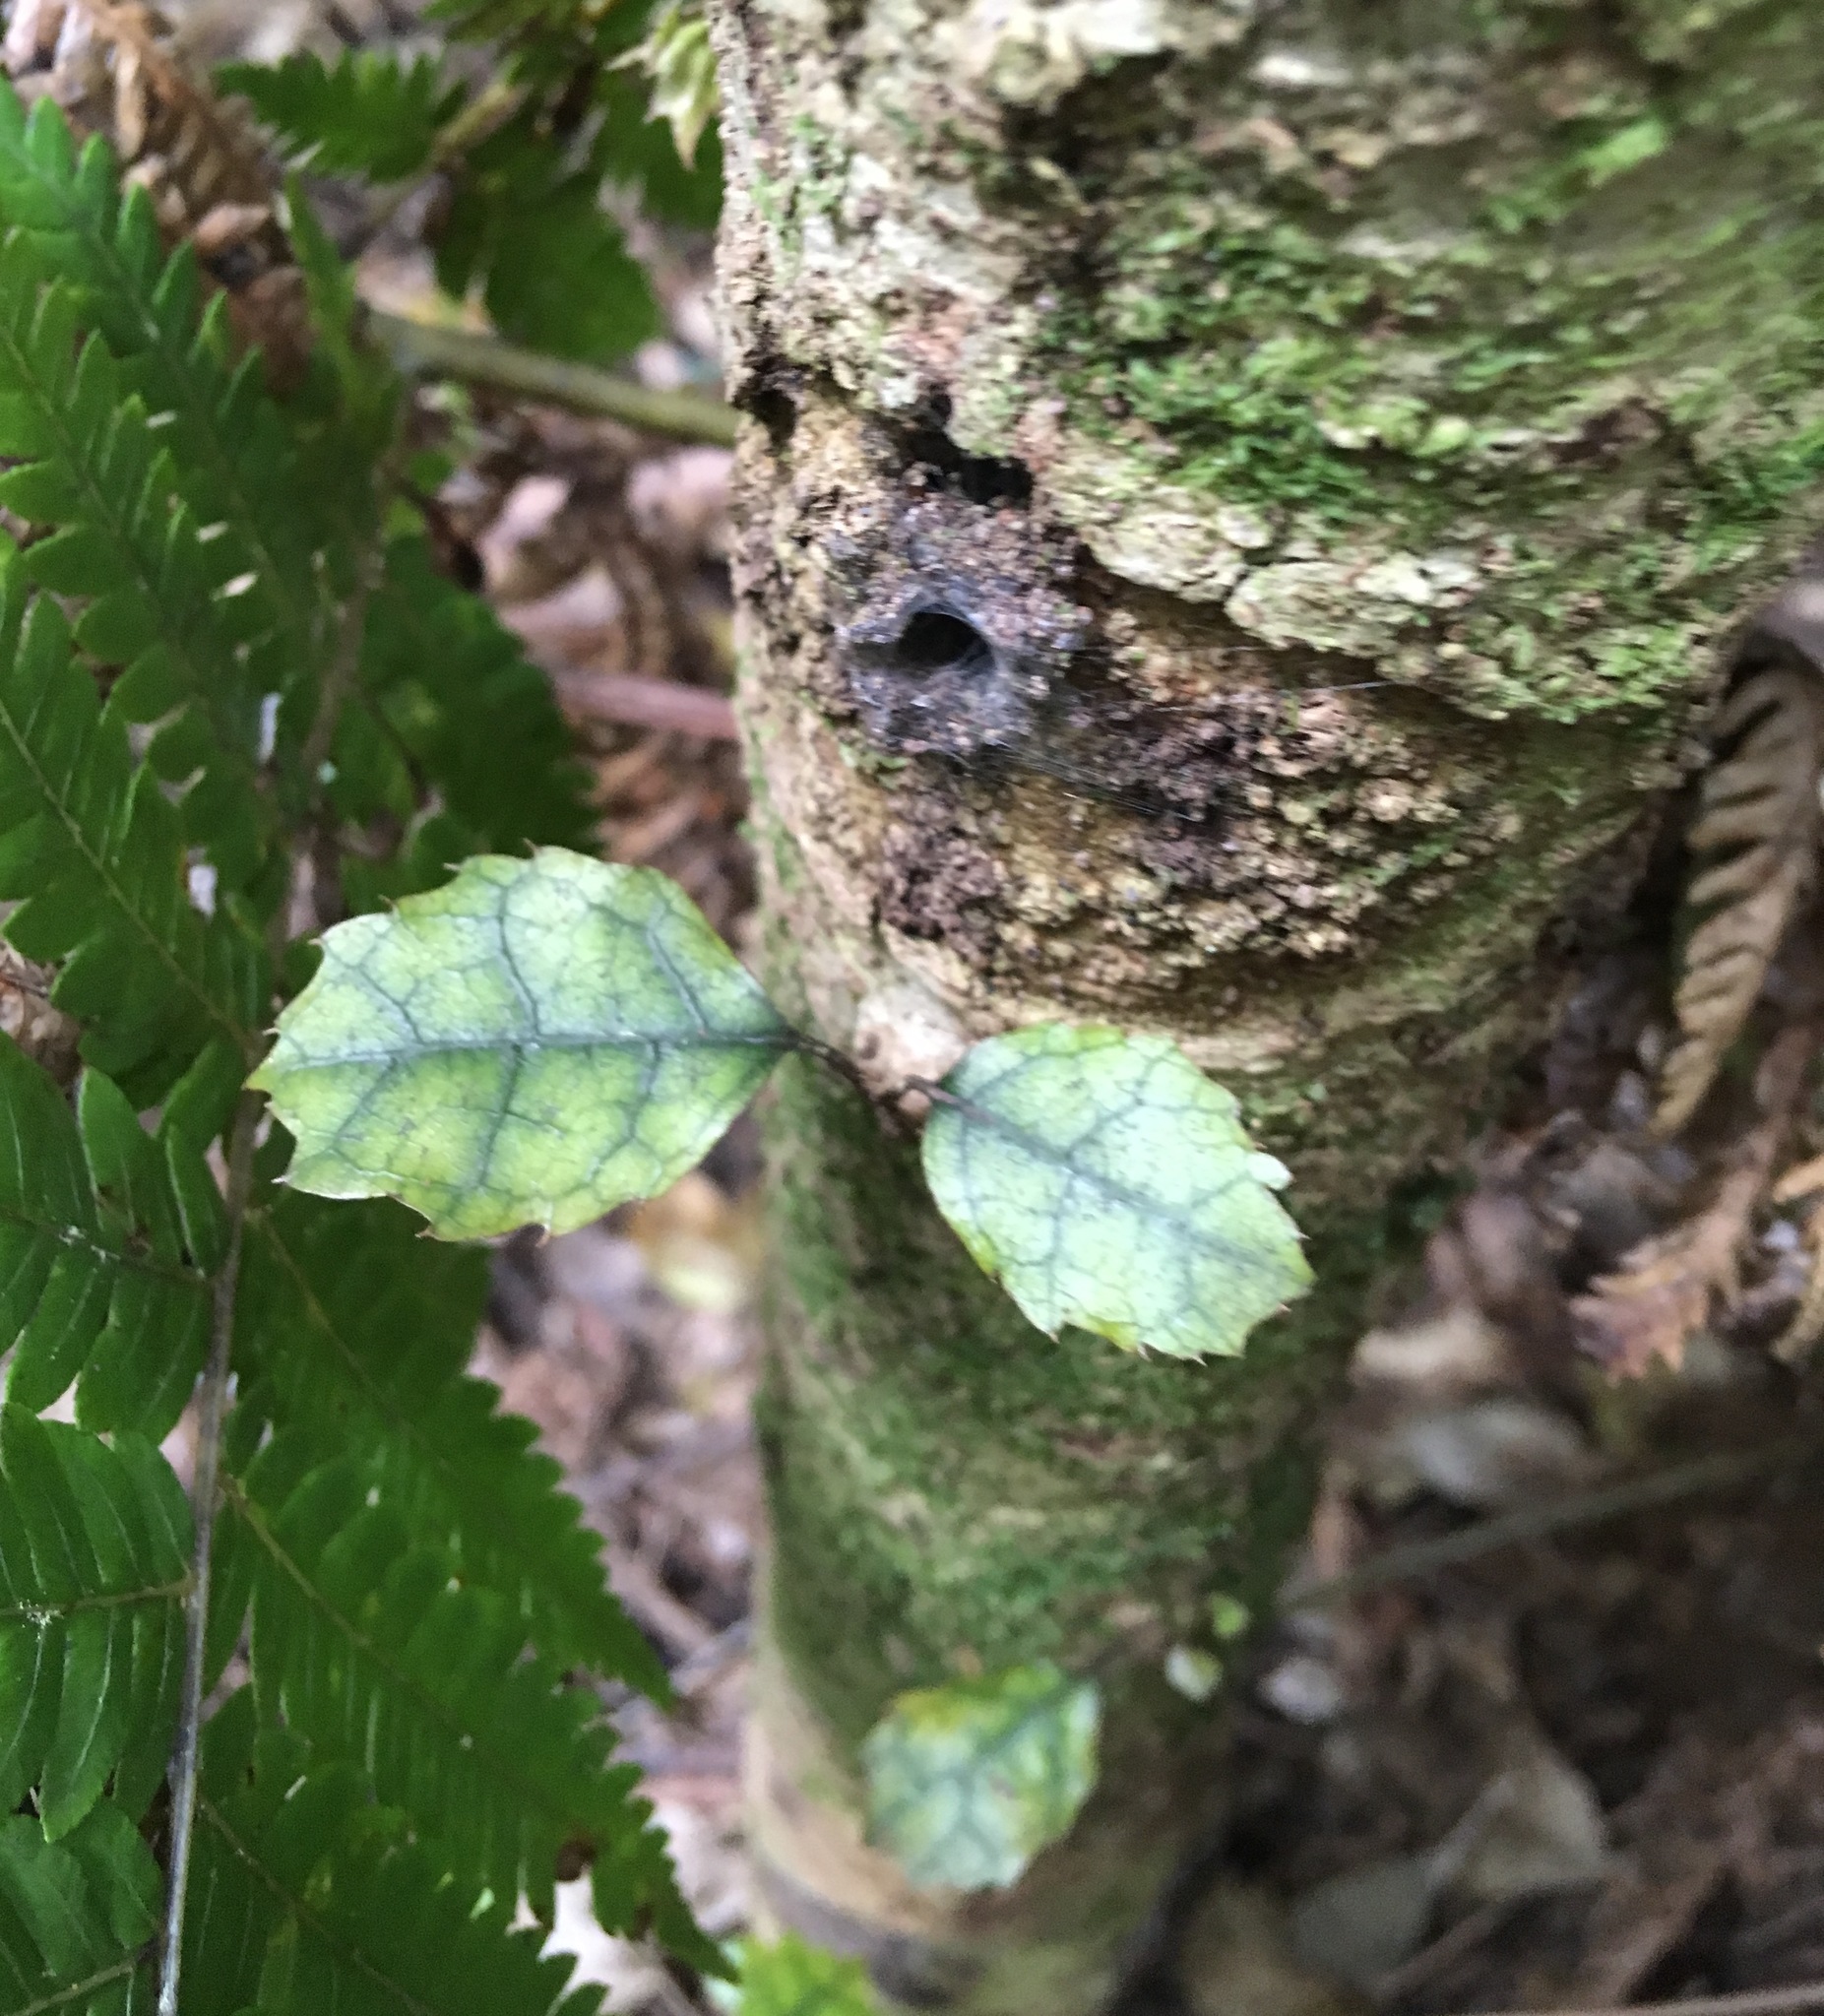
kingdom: Plantae
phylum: Tracheophyta
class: Magnoliopsida
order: Asterales
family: Rousseaceae
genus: Carpodetus
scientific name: Carpodetus serratus
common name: White mapau
